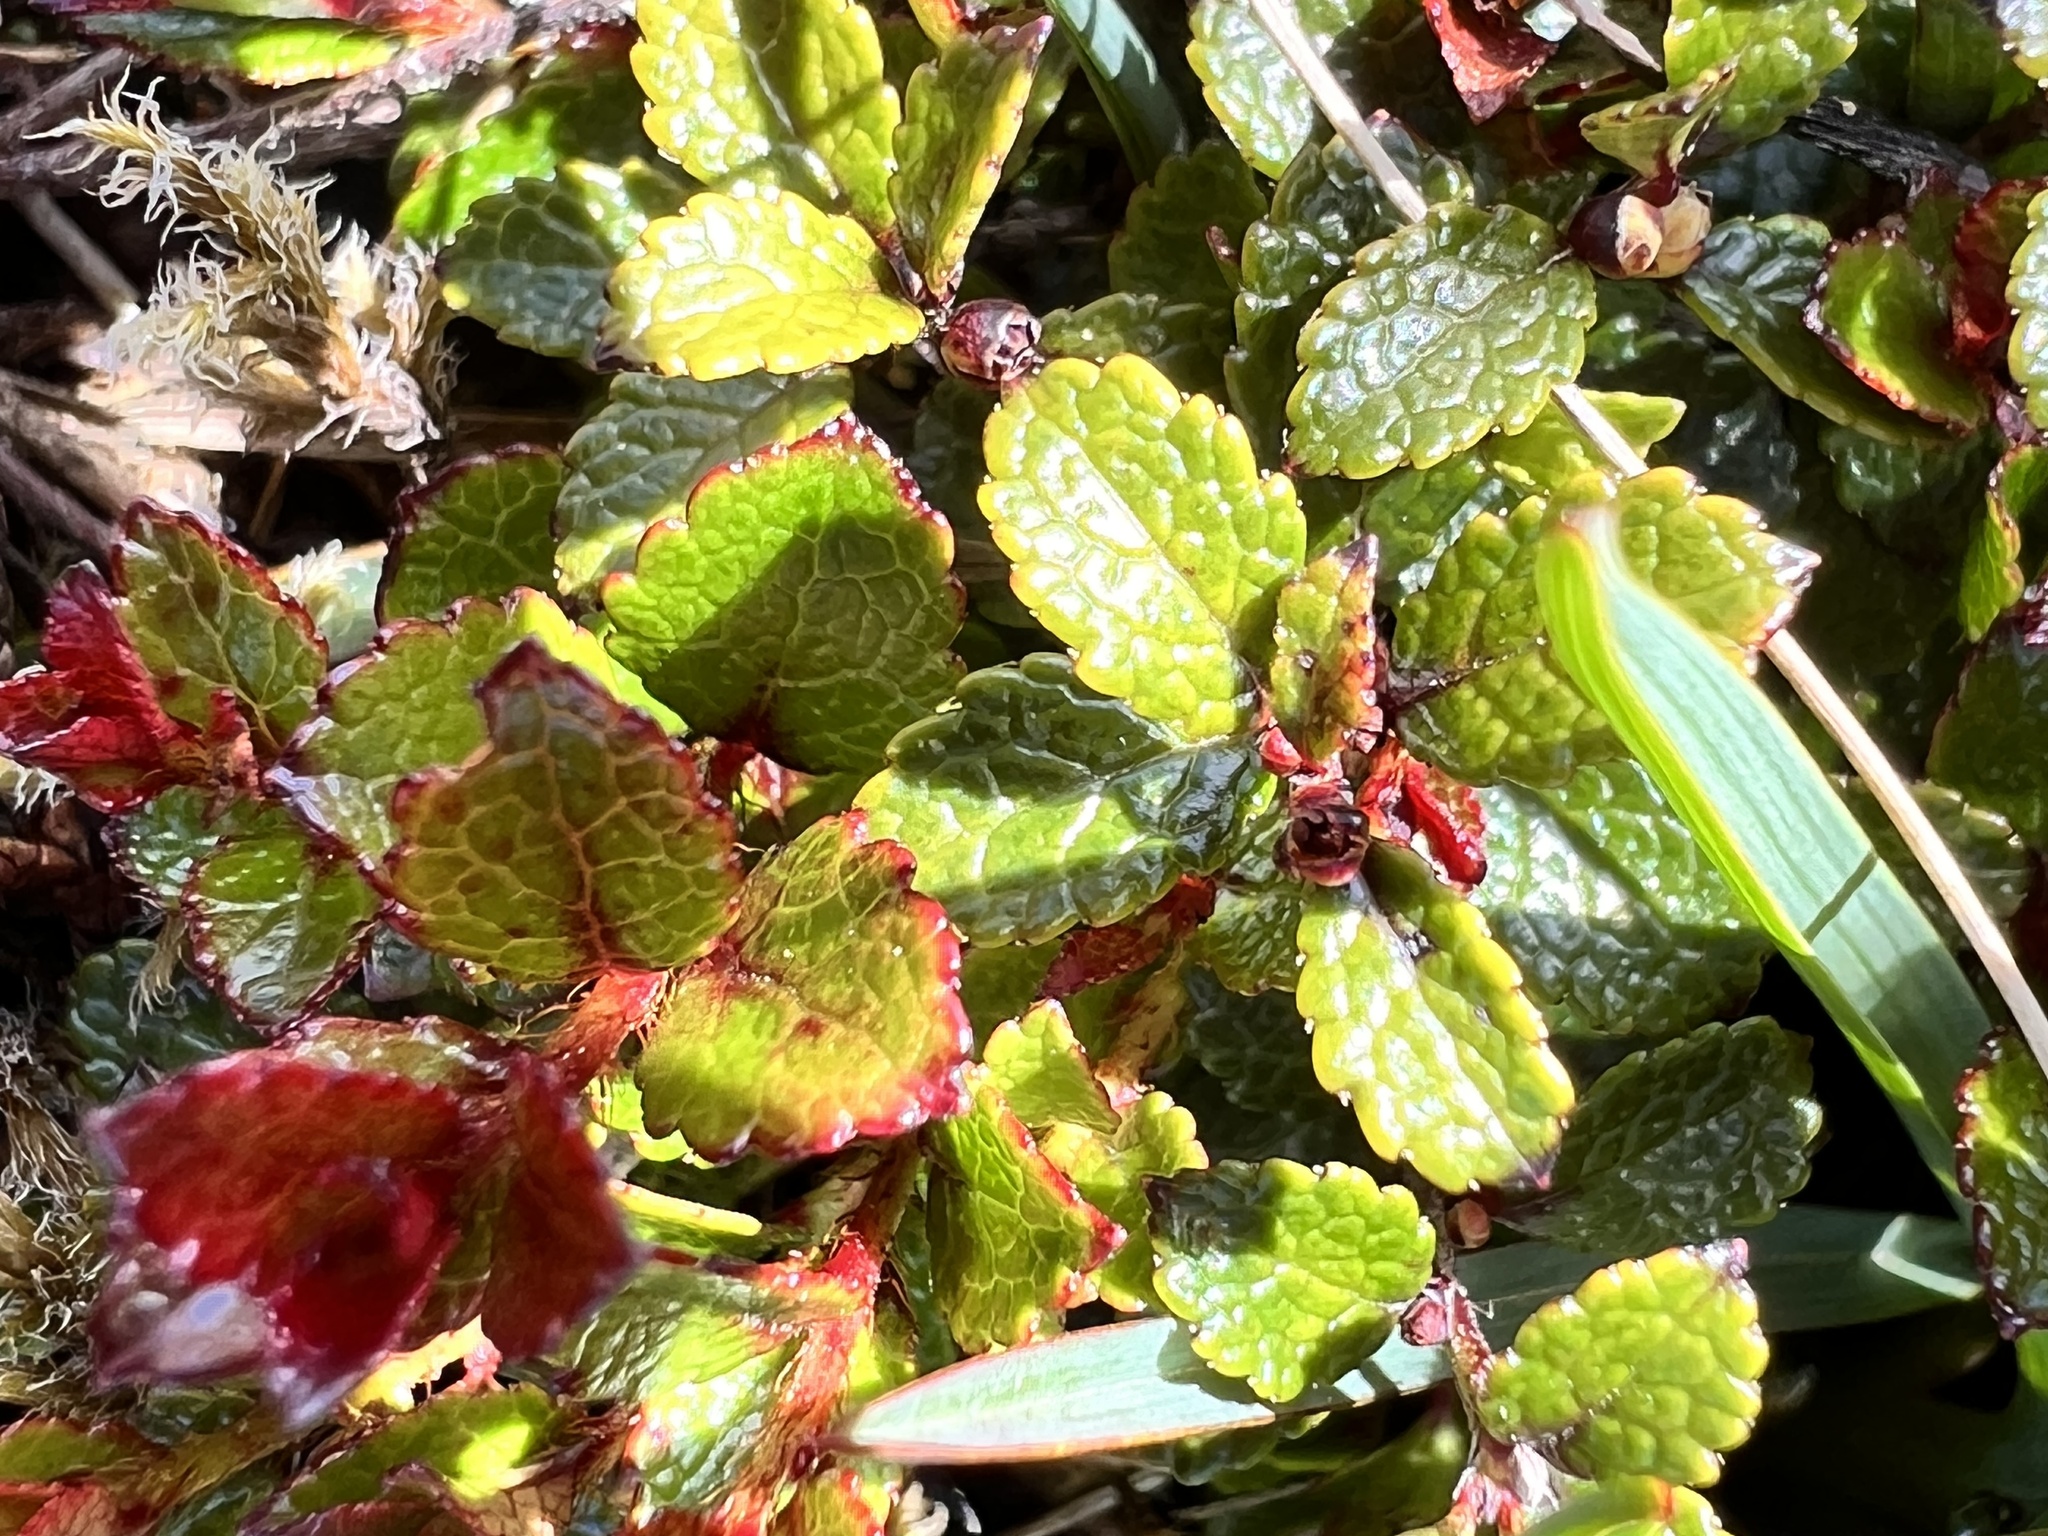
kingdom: Plantae
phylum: Tracheophyta
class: Magnoliopsida
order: Ericales
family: Ericaceae
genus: Gaultheria
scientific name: Gaultheria depressa
